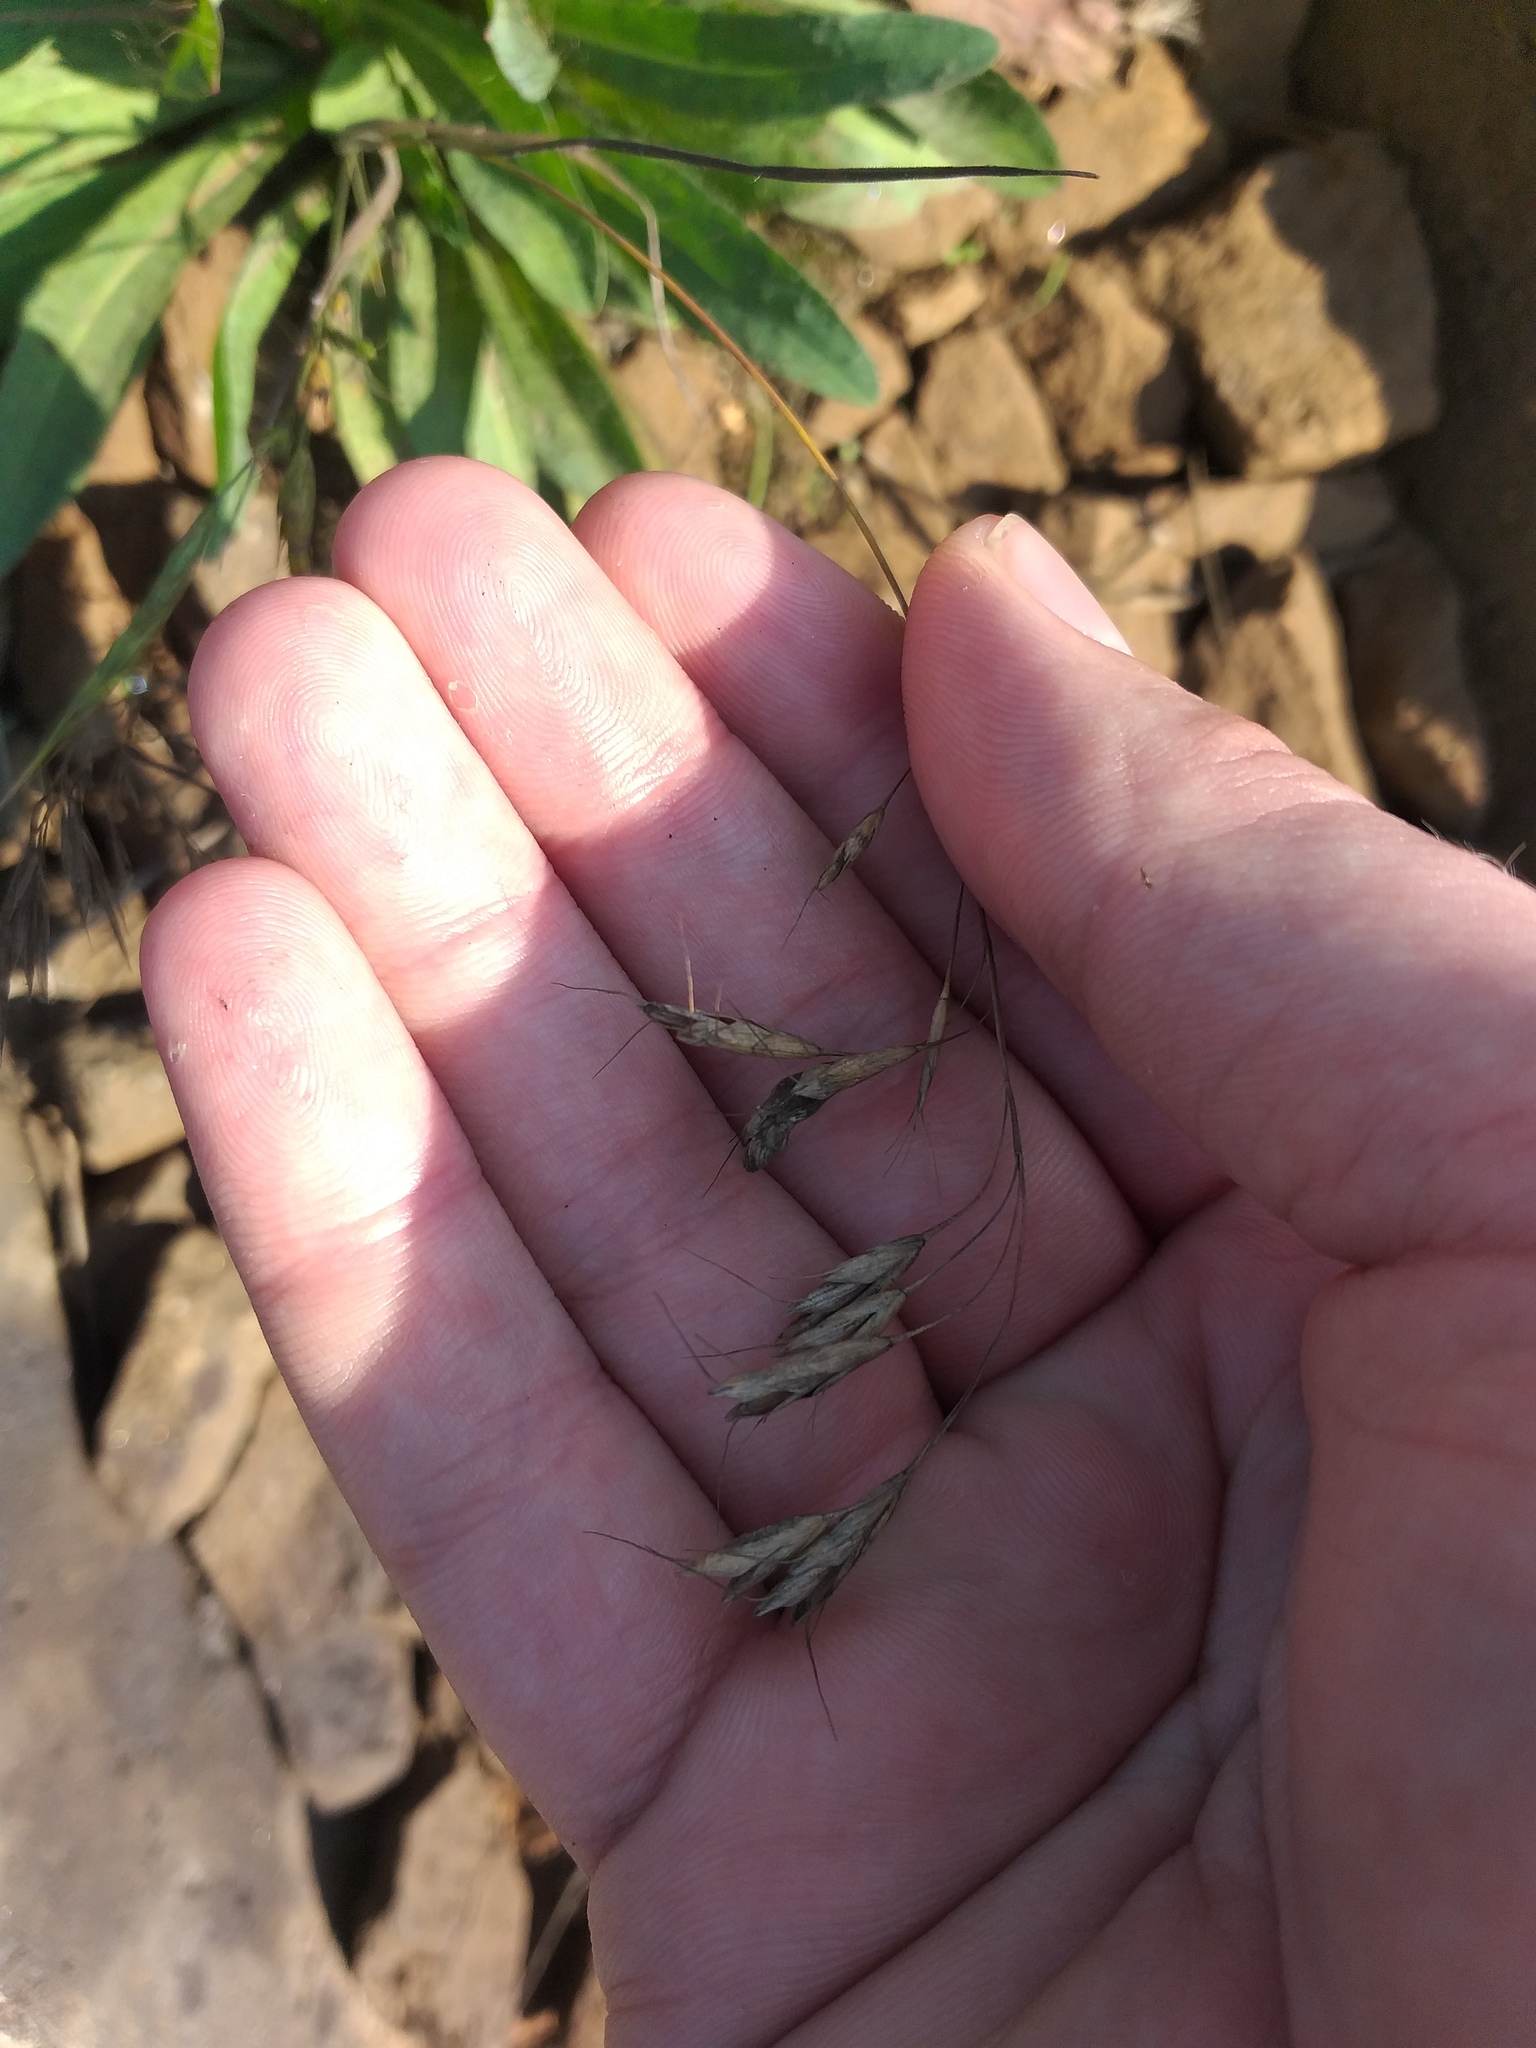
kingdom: Plantae
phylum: Tracheophyta
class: Liliopsida
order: Poales
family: Poaceae
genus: Bromus
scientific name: Bromus squarrosus
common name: Corn brome
